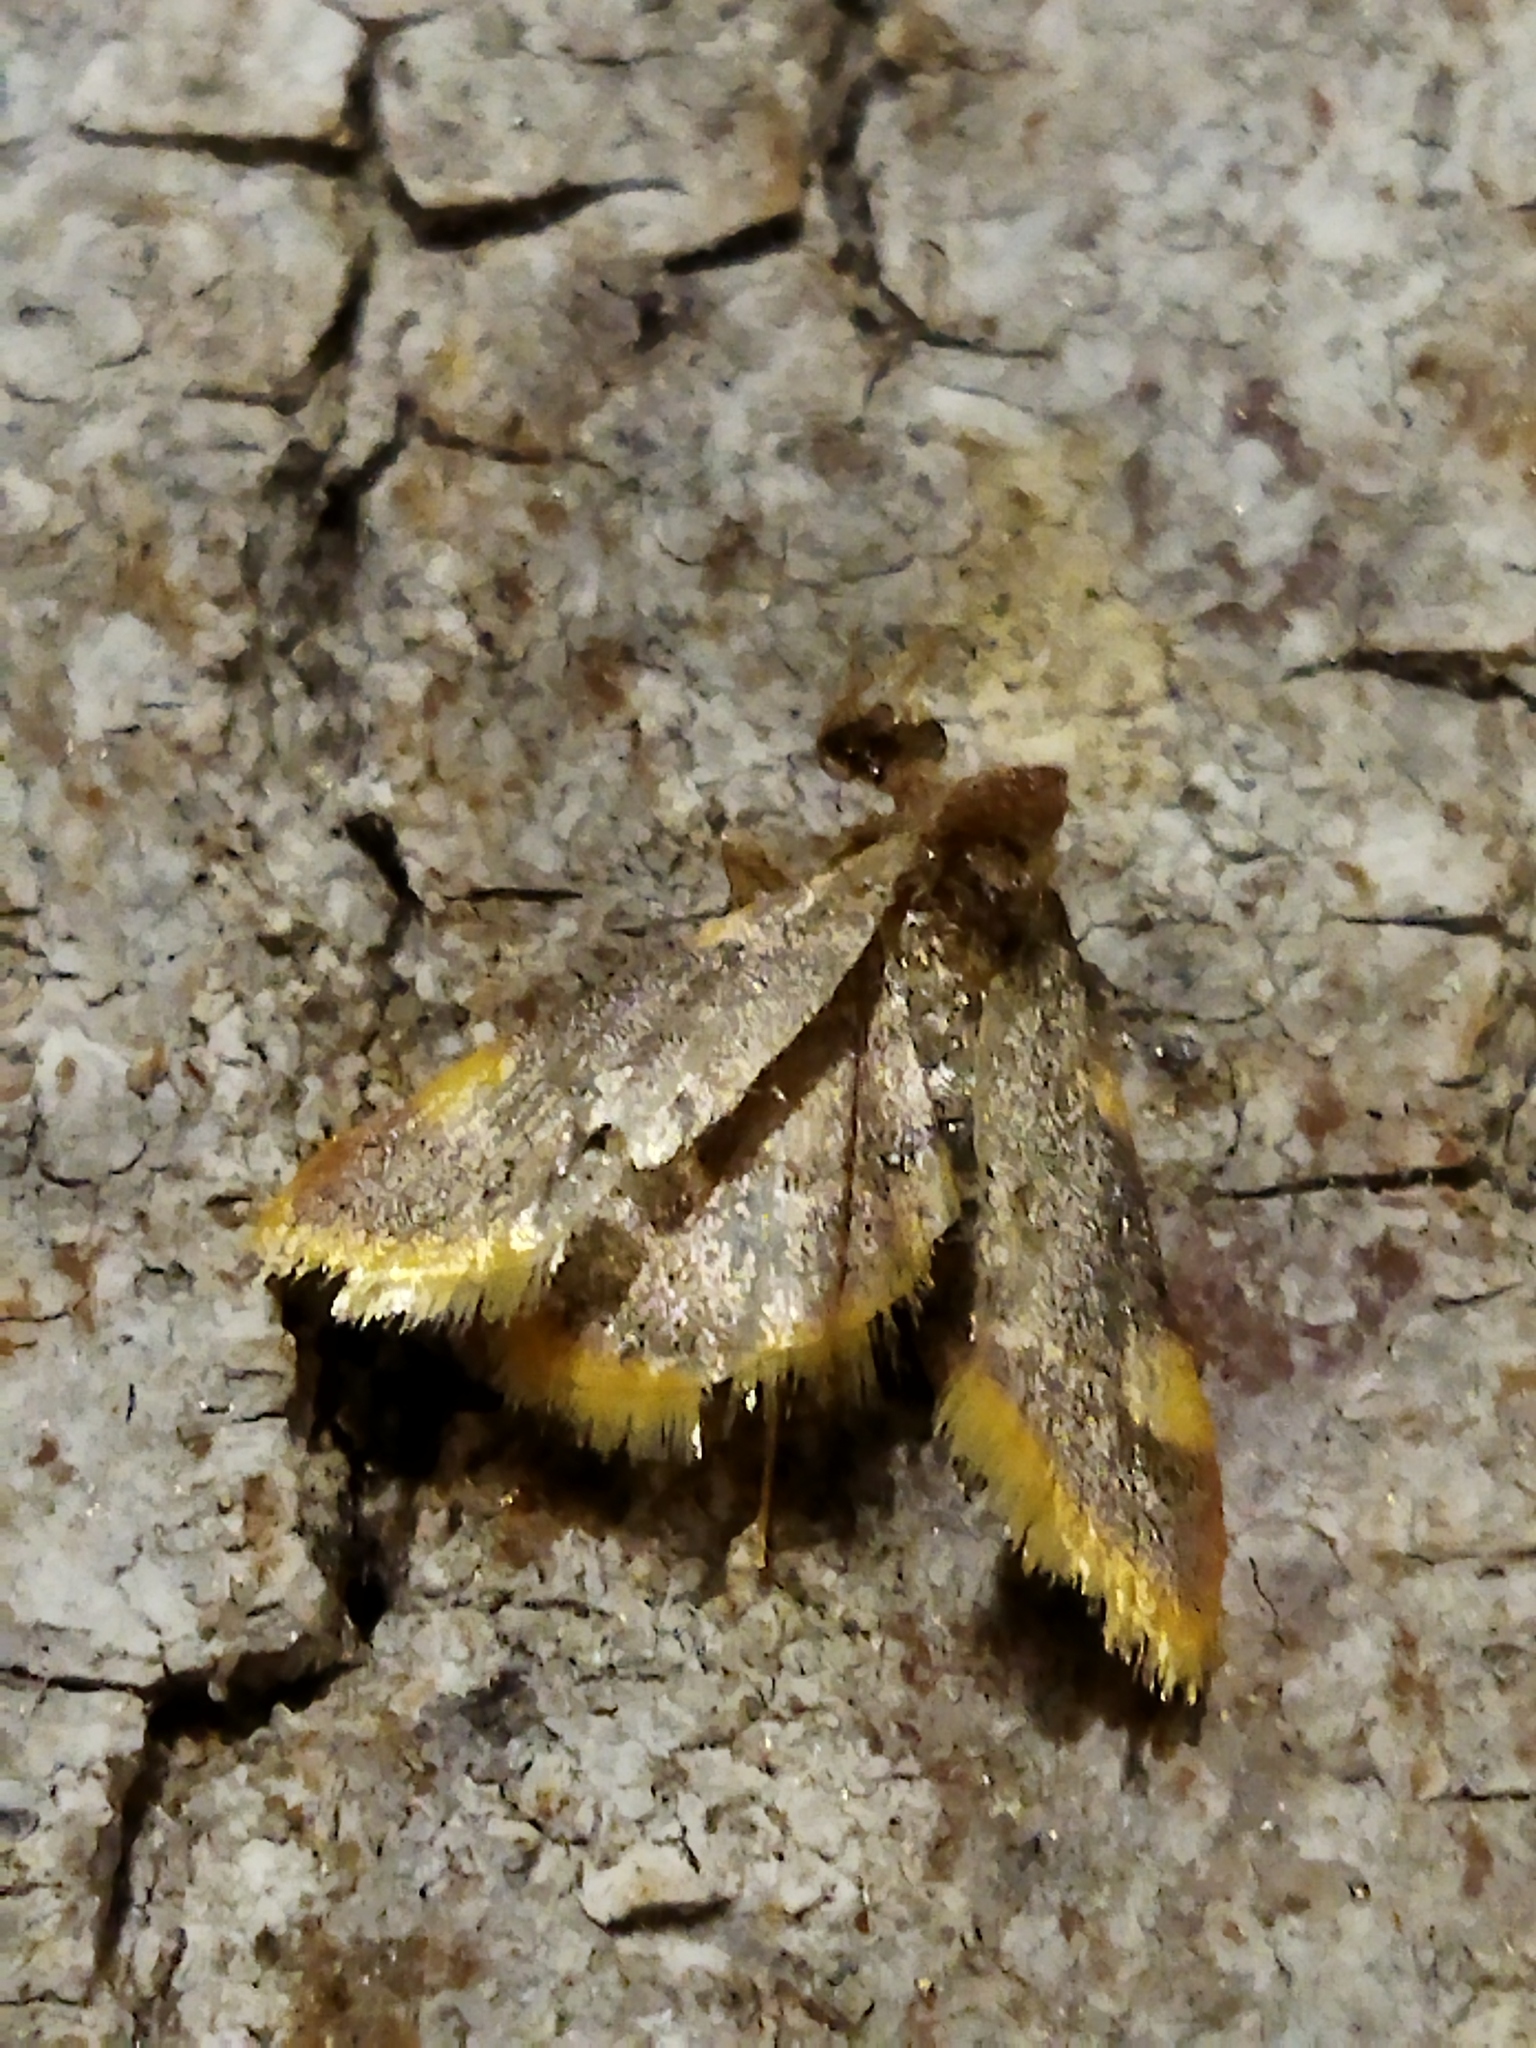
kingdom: Animalia
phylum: Arthropoda
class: Insecta
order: Lepidoptera
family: Pyralidae
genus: Hypsopygia
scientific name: Hypsopygia costalis
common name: Gold triangle
